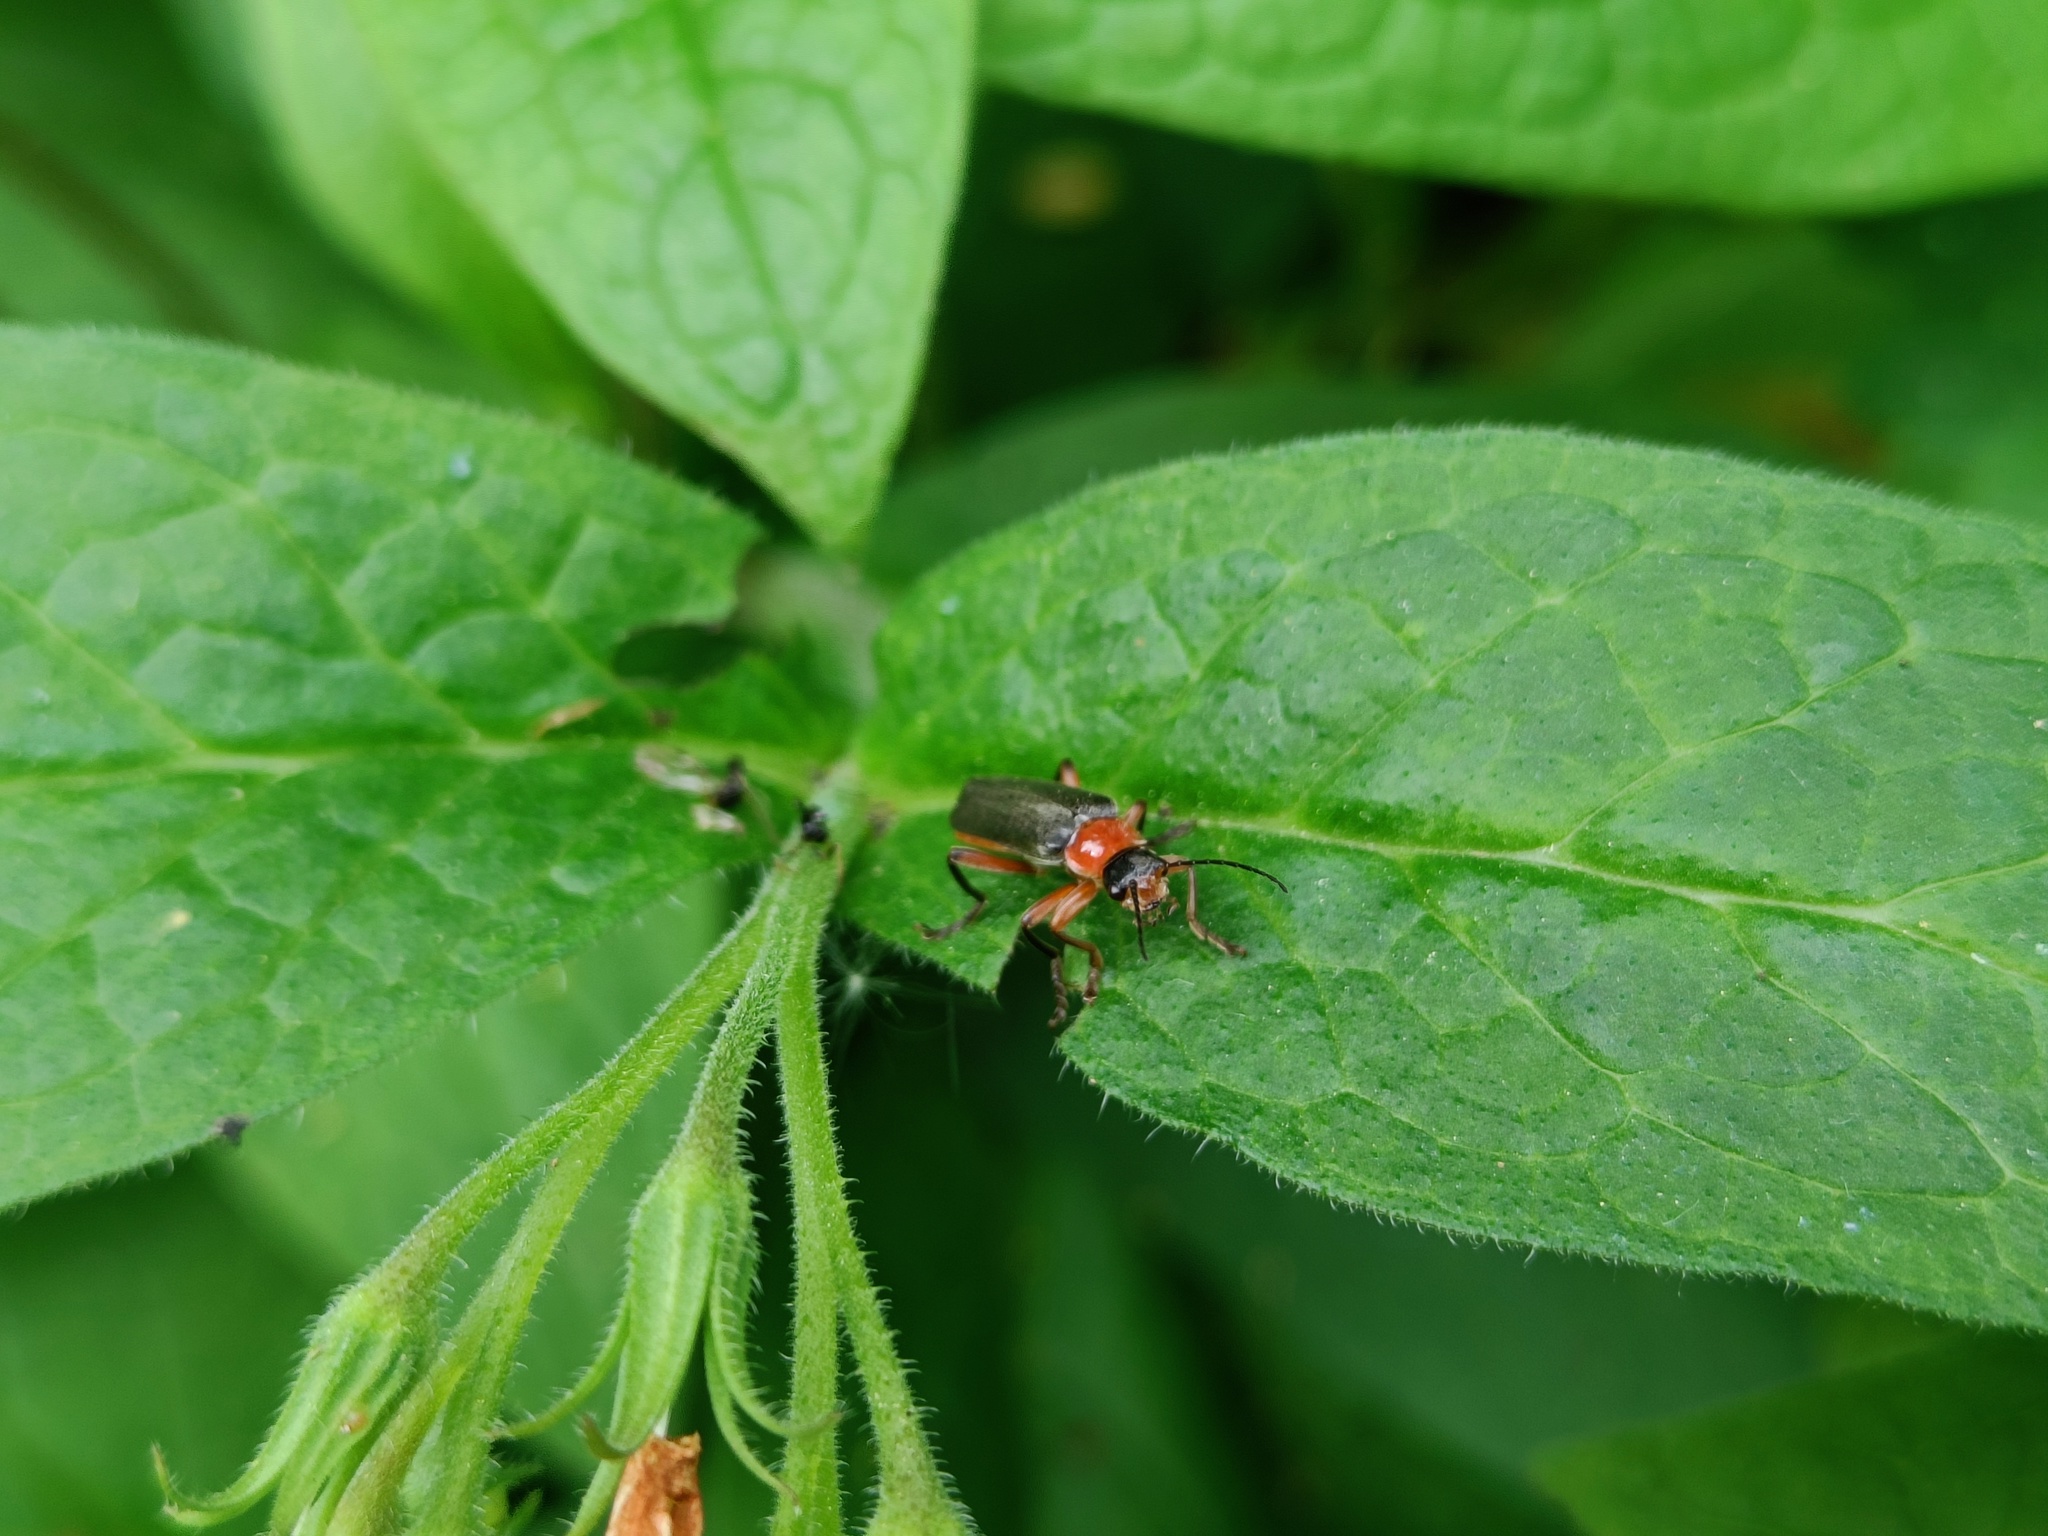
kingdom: Animalia
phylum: Arthropoda
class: Insecta
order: Coleoptera
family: Cantharidae
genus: Cantharis
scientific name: Cantharis pellucida
